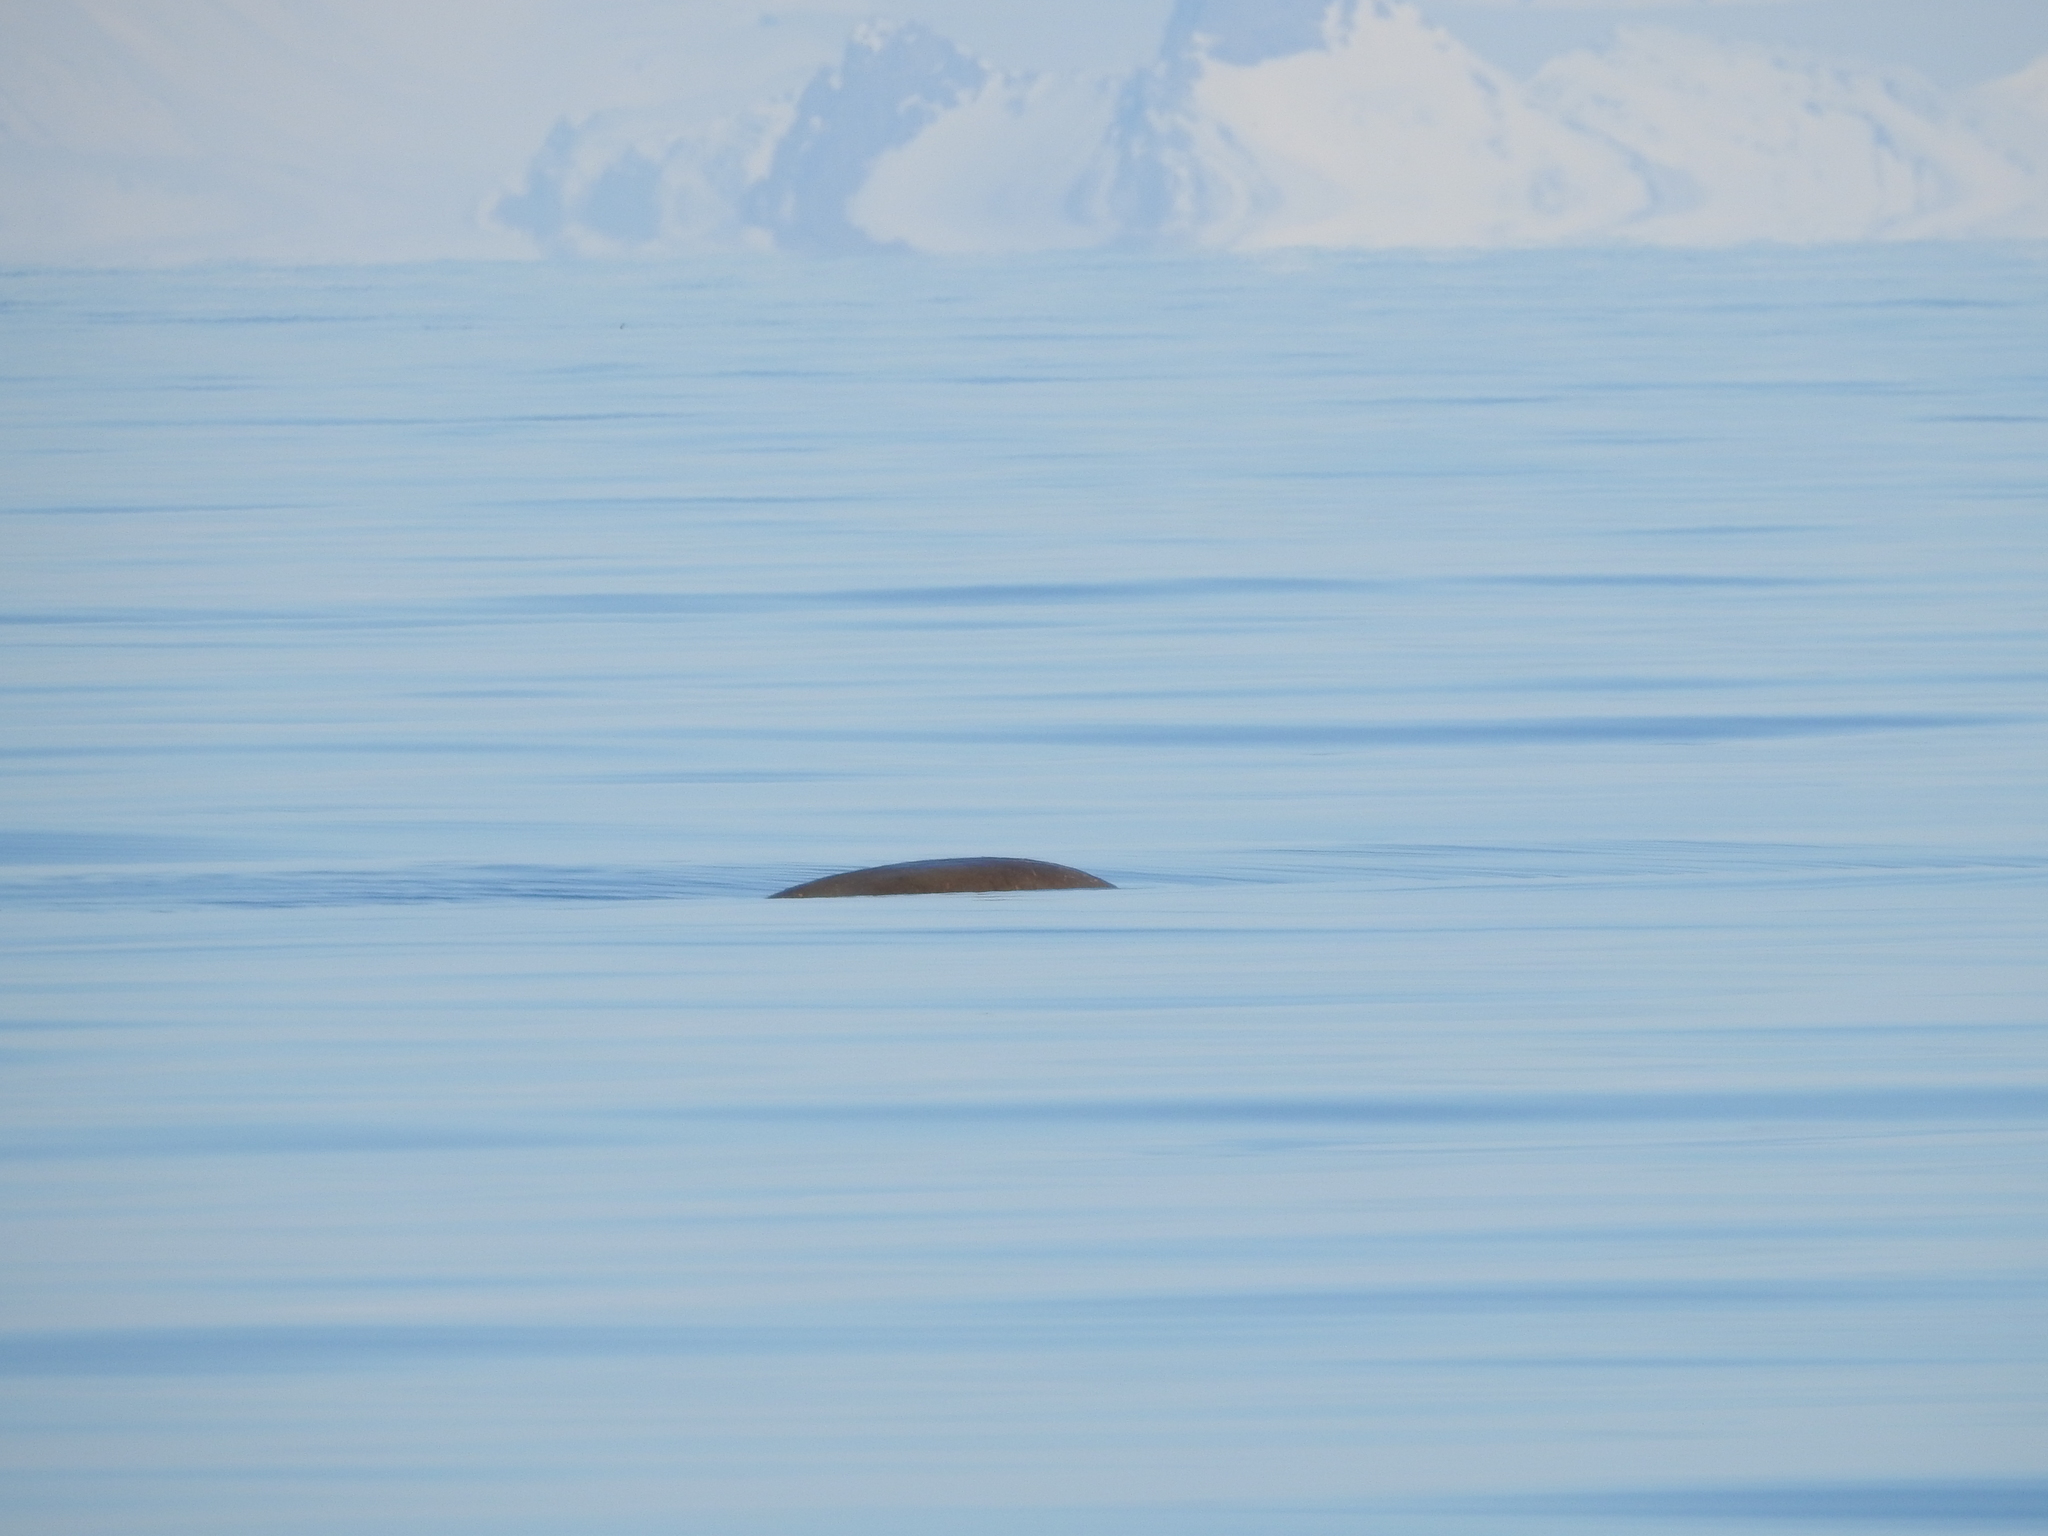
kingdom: Animalia
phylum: Chordata
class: Mammalia
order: Carnivora
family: Odobenidae
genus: Odobenus
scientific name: Odobenus rosmarus
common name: Walrus
